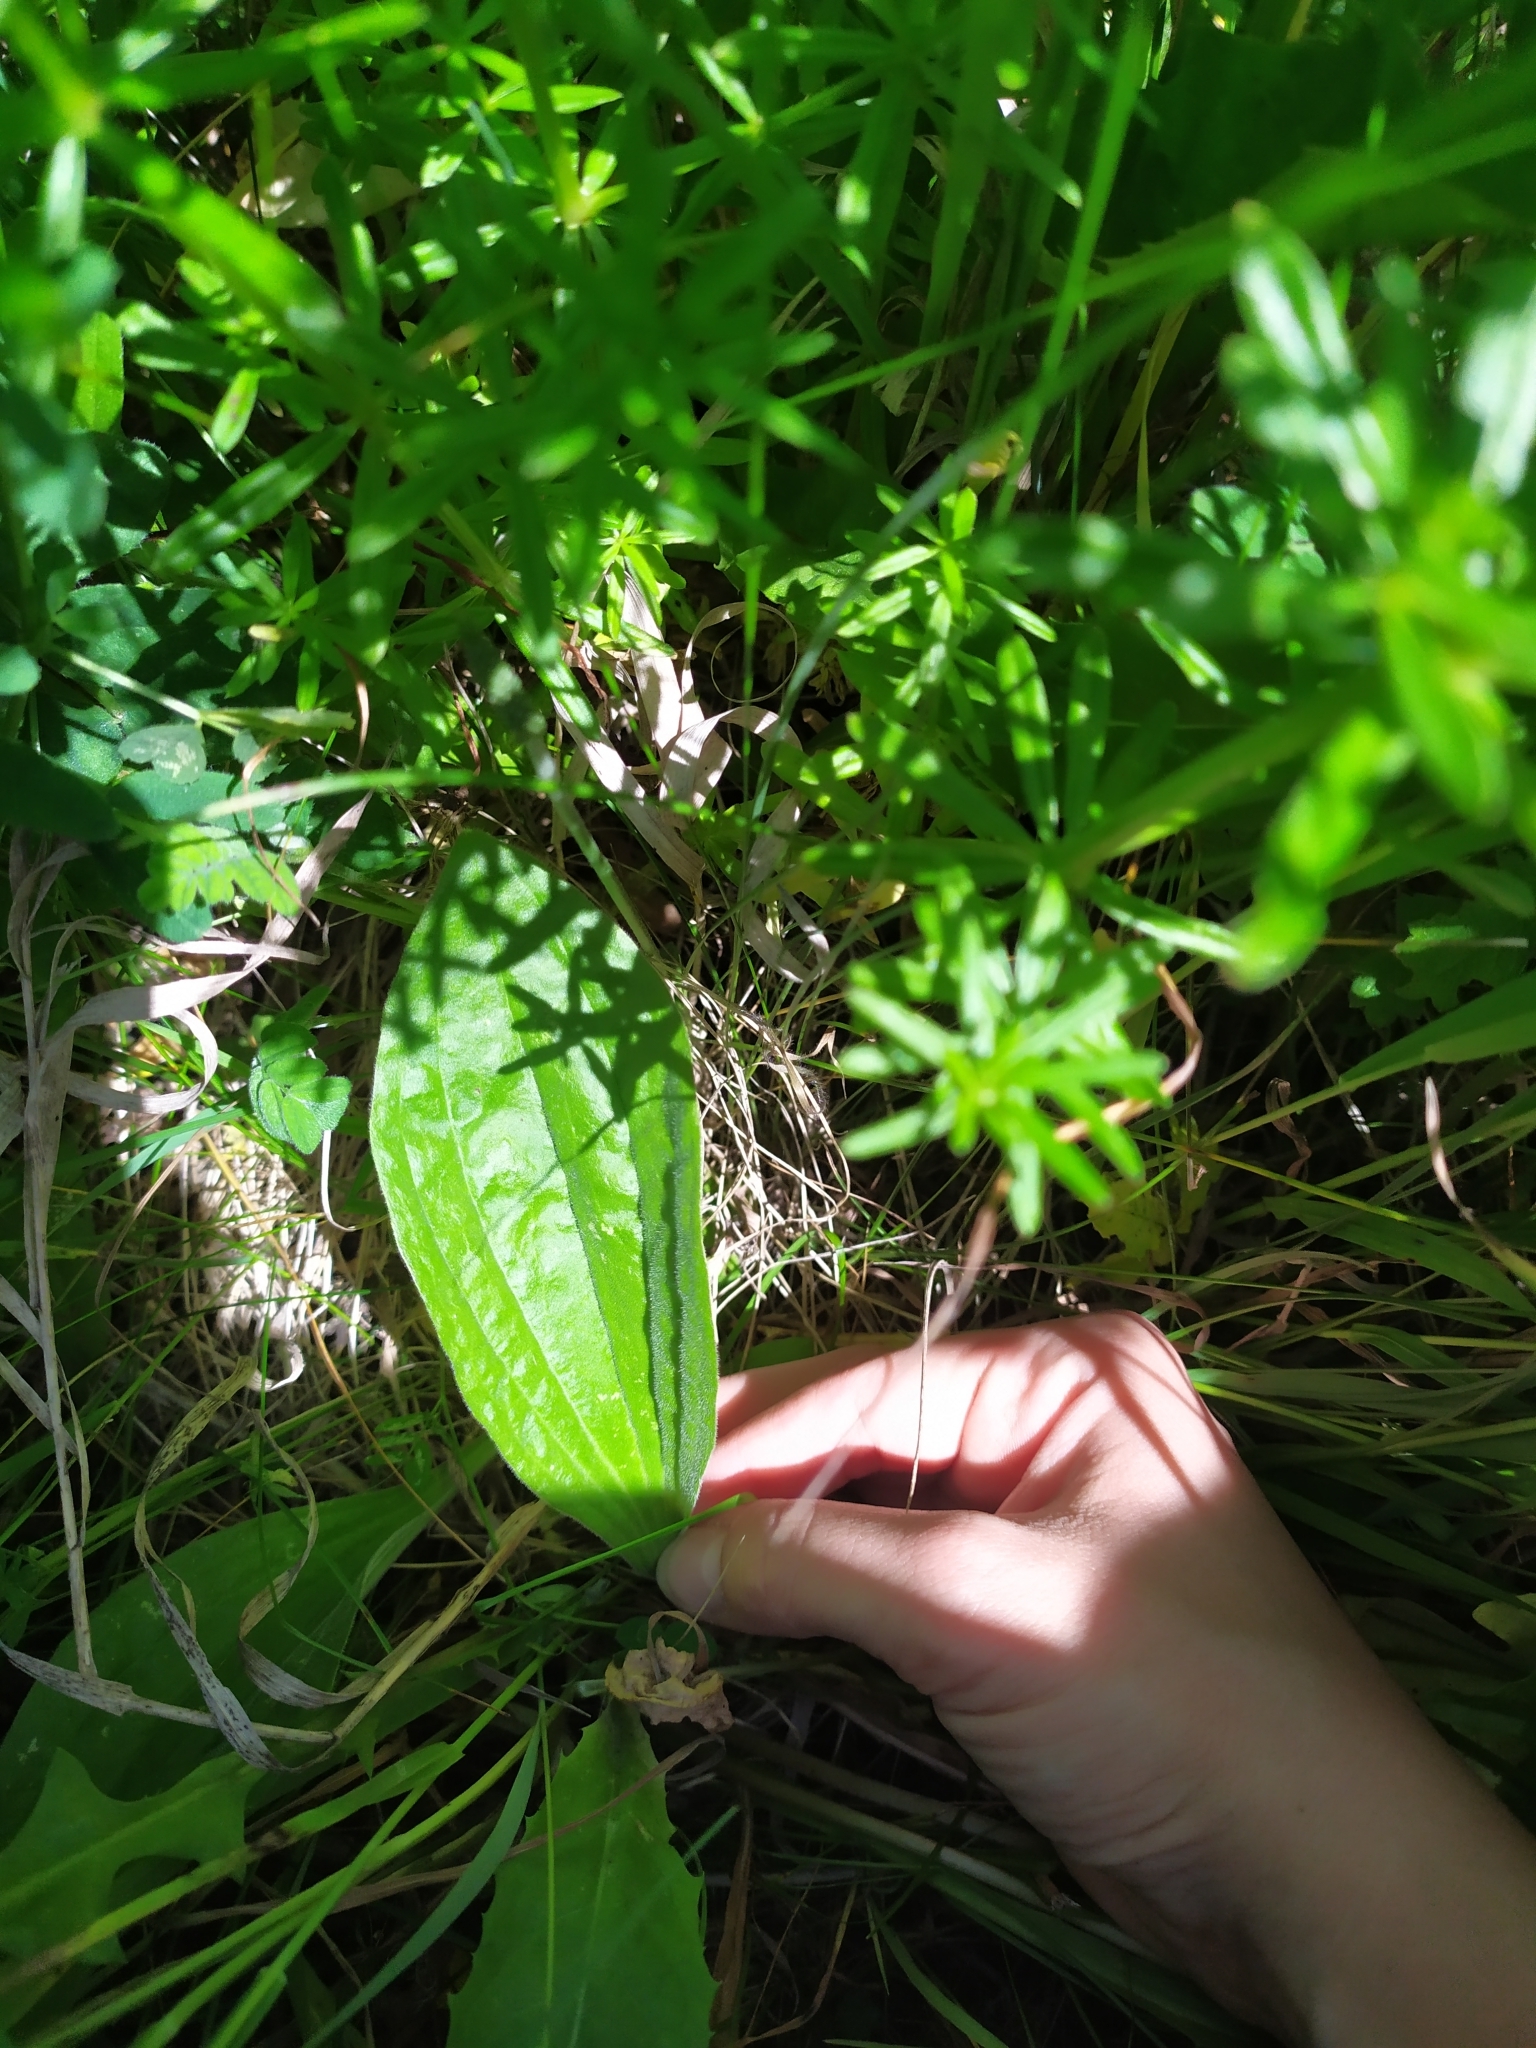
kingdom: Plantae
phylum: Tracheophyta
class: Magnoliopsida
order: Lamiales
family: Plantaginaceae
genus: Plantago
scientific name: Plantago media
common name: Hoary plantain
